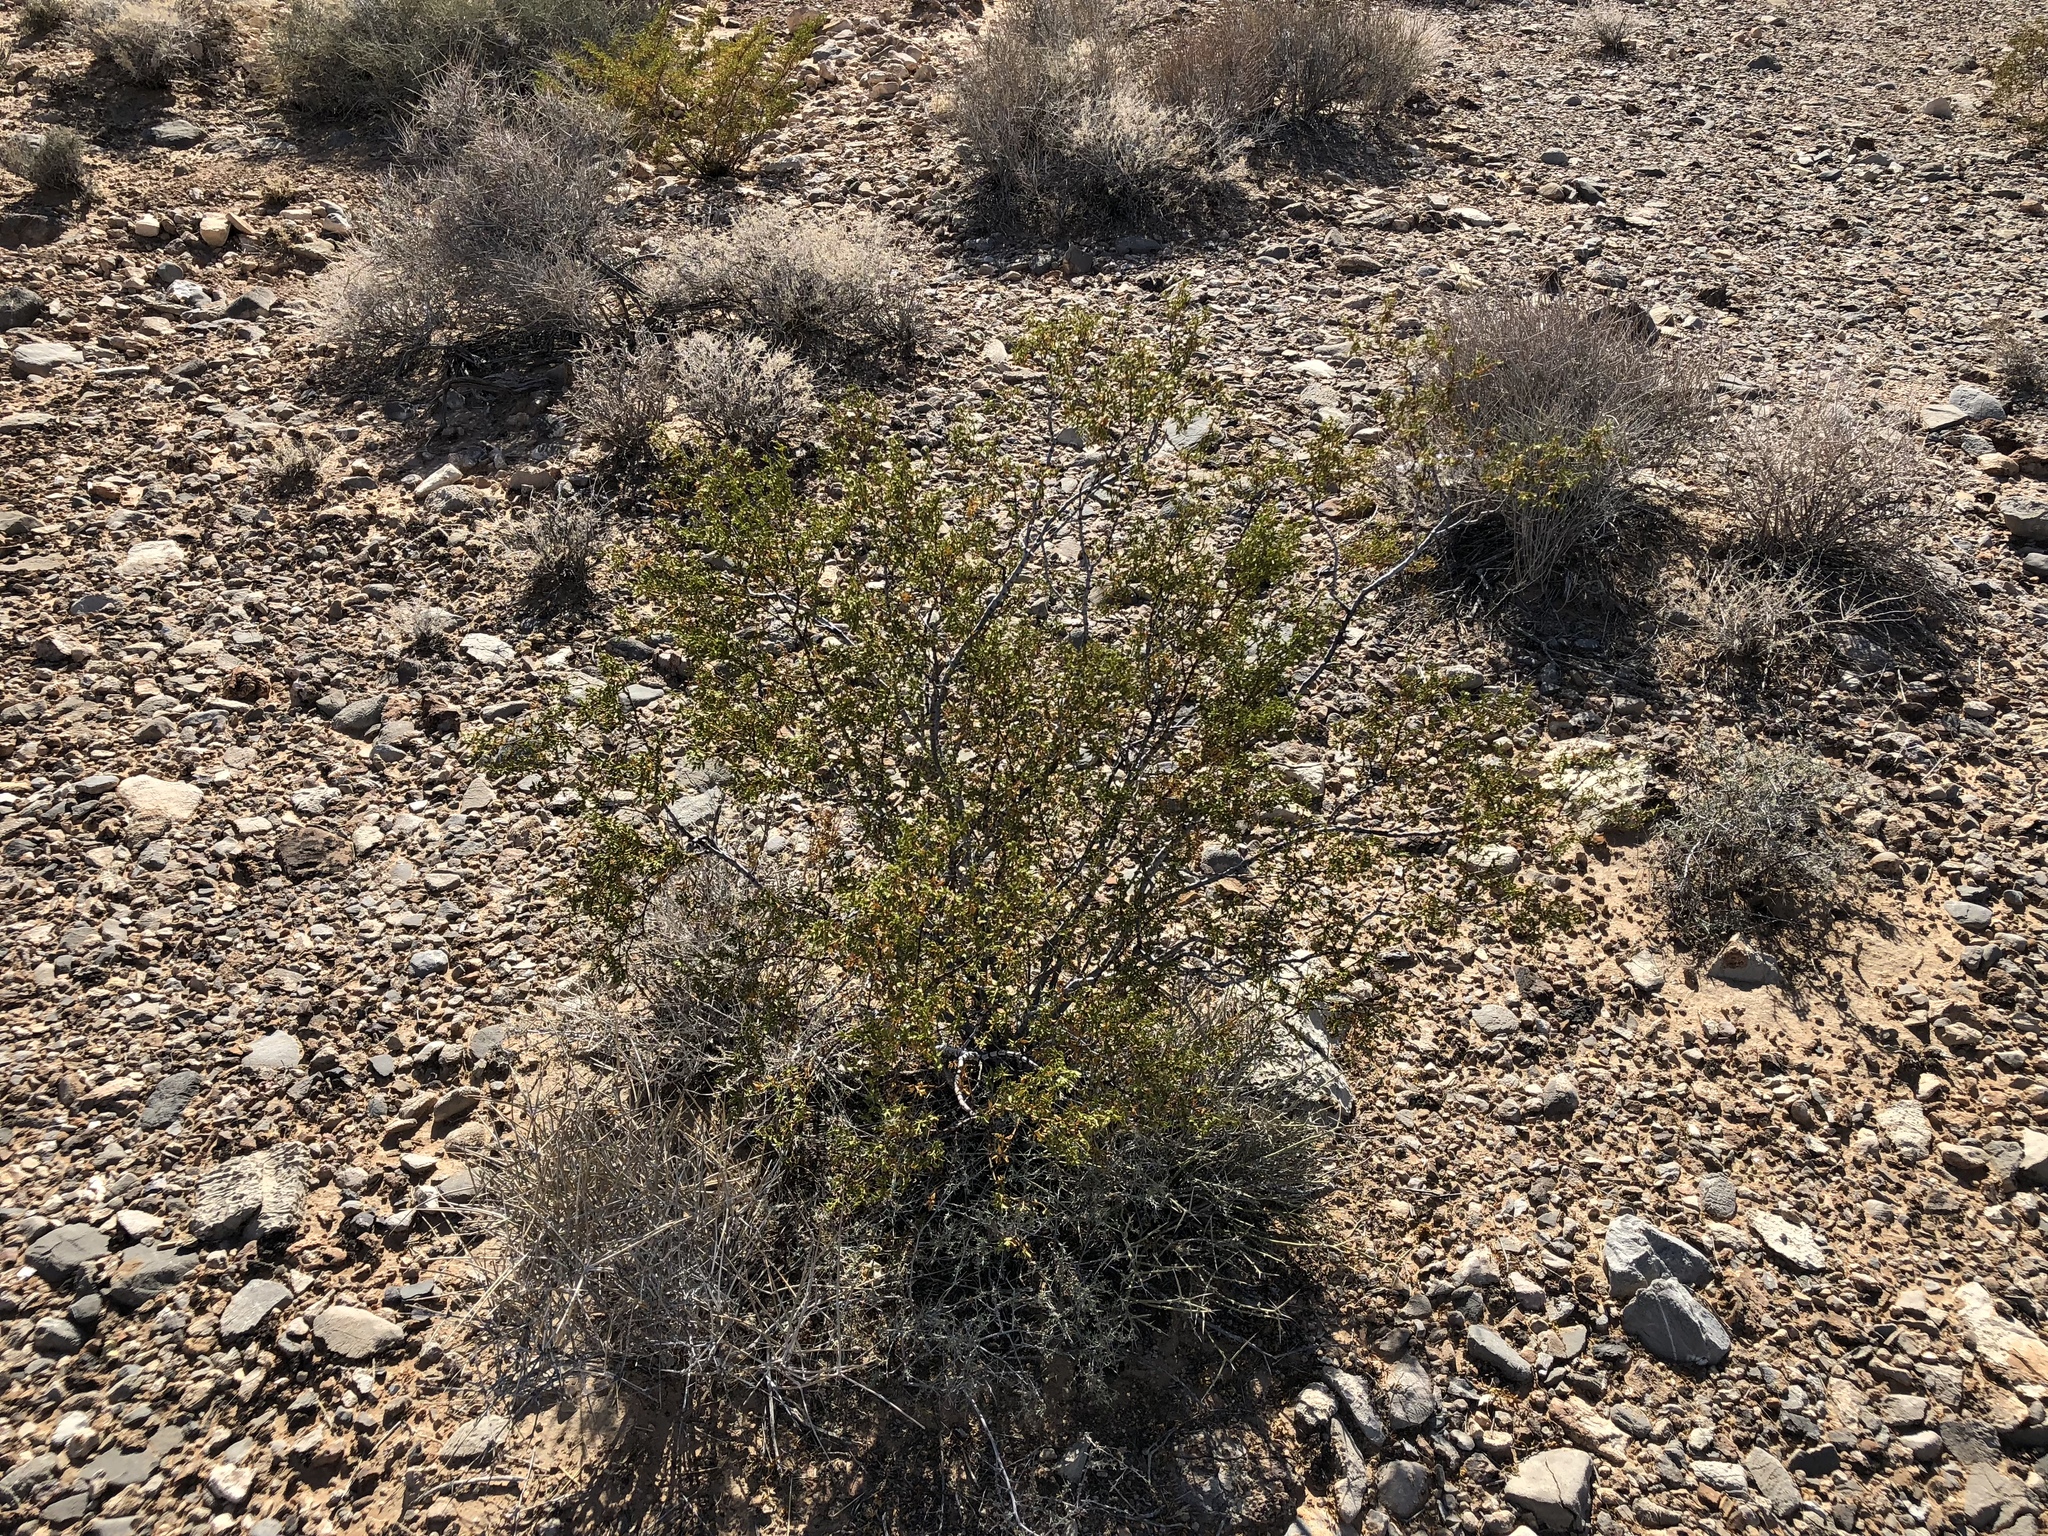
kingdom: Plantae
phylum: Tracheophyta
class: Magnoliopsida
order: Zygophyllales
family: Zygophyllaceae
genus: Larrea
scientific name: Larrea tridentata
